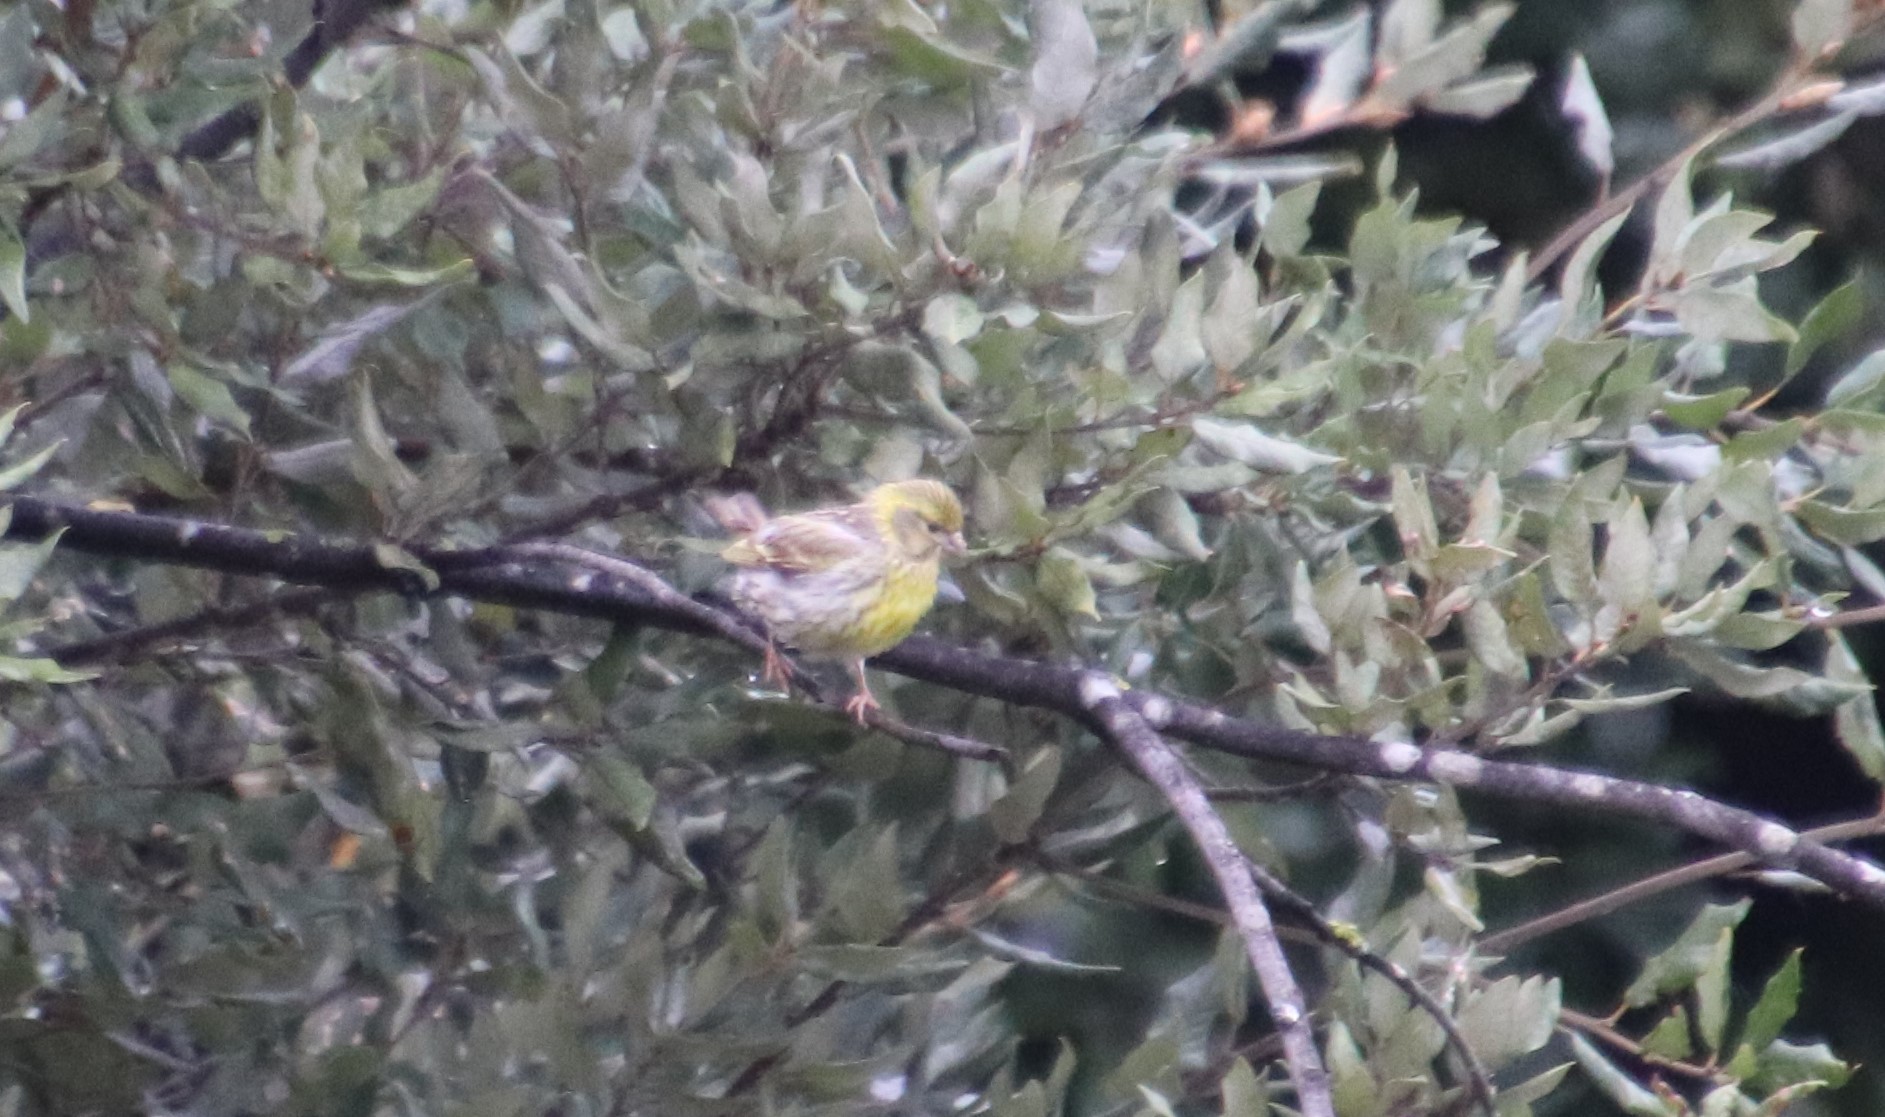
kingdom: Animalia
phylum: Chordata
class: Aves
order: Passeriformes
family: Fringillidae
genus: Serinus
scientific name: Serinus serinus
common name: European serin
